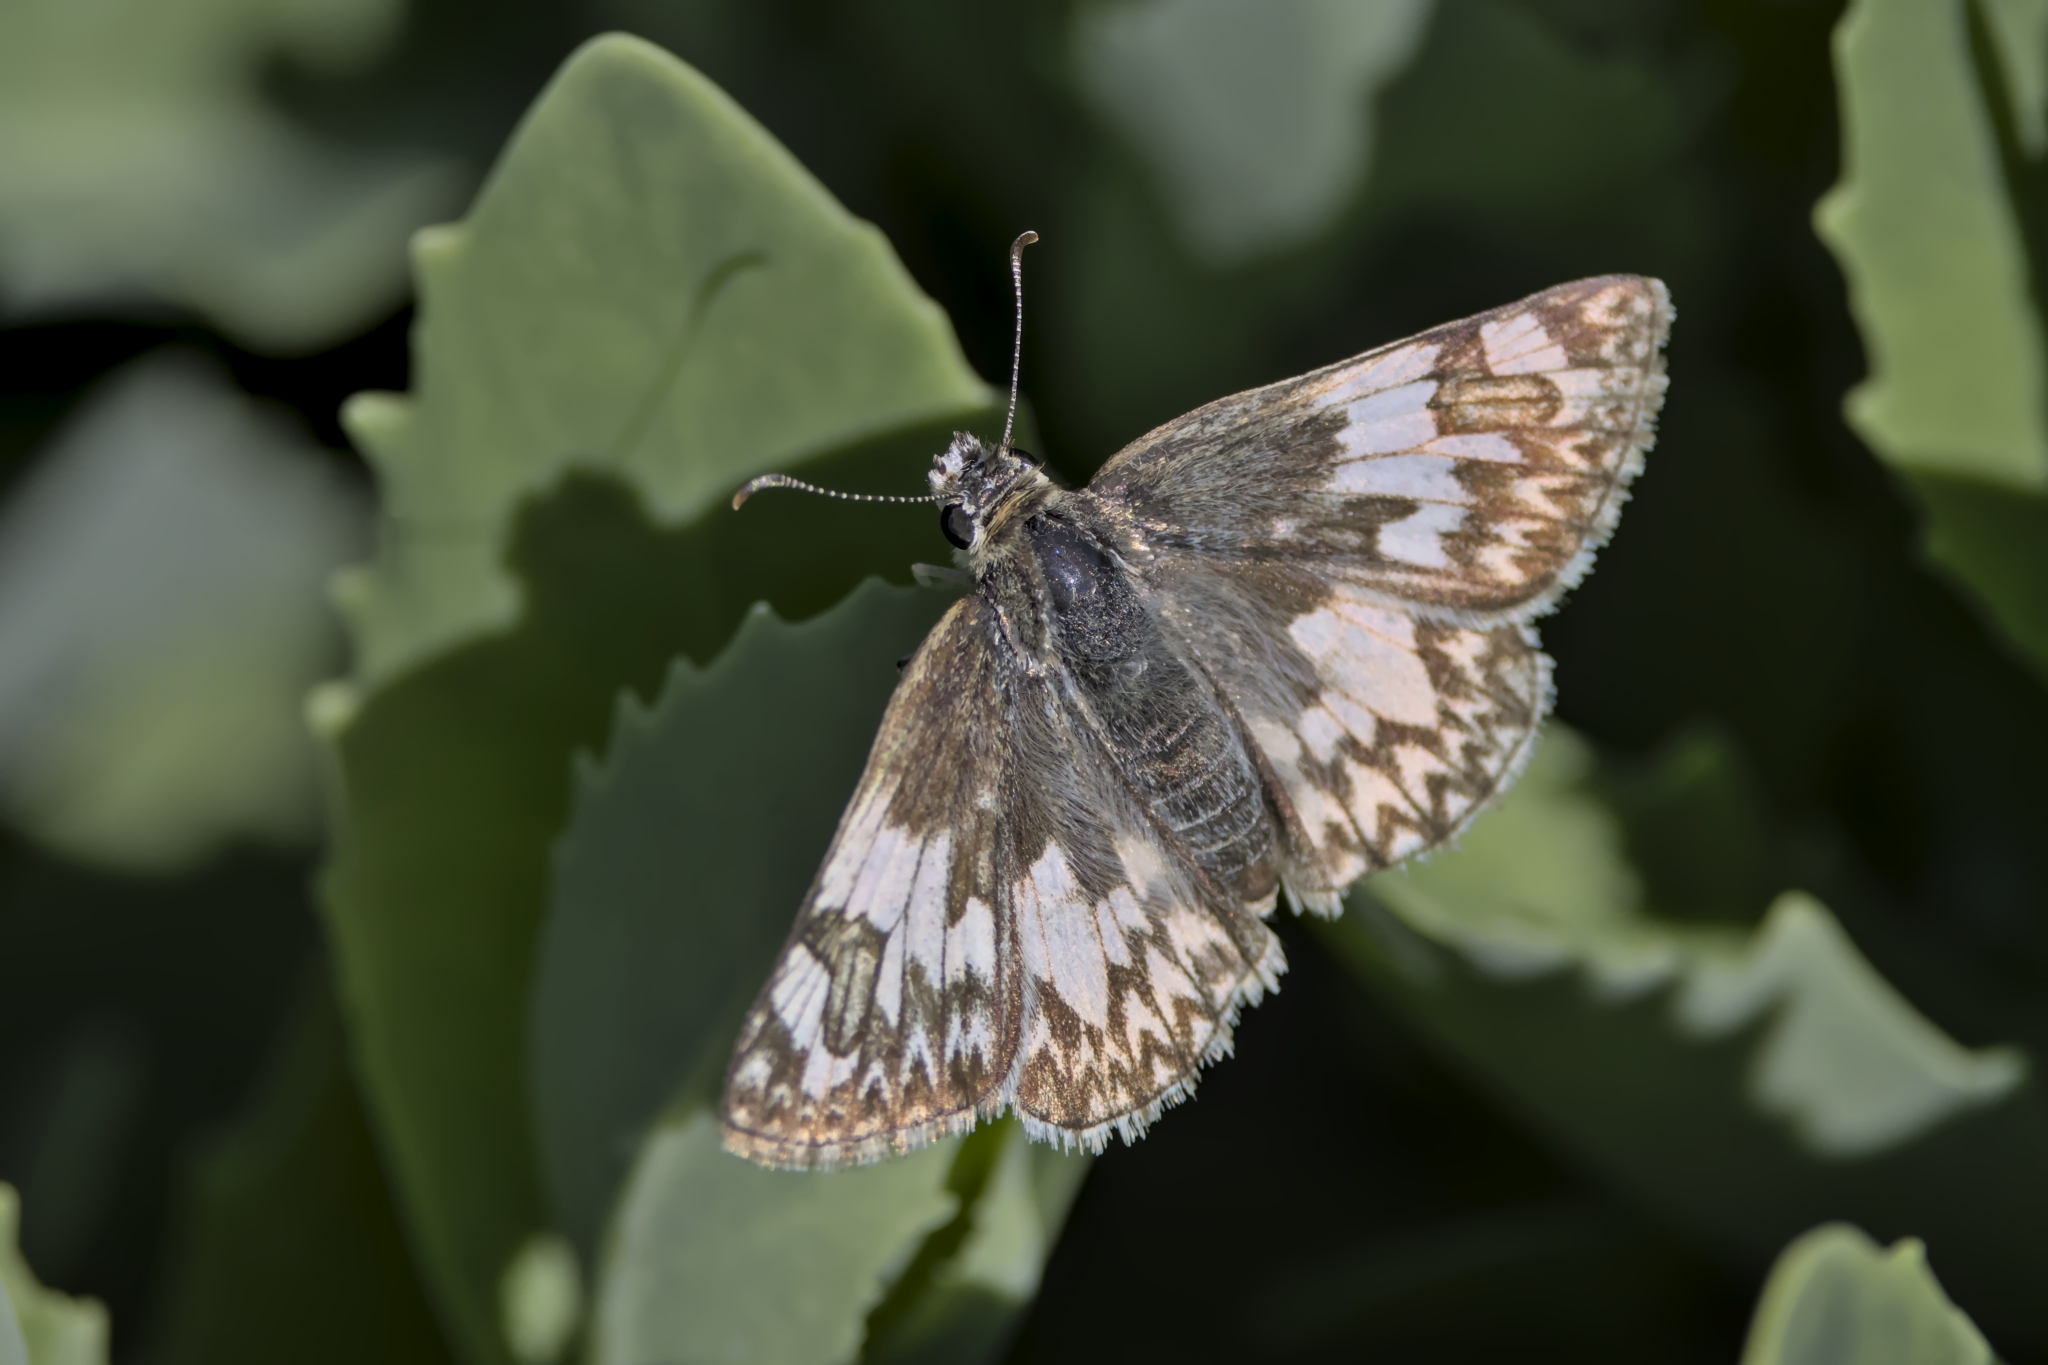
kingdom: Animalia
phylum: Arthropoda
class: Insecta
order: Lepidoptera
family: Hesperiidae
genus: Heliopetes
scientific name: Heliopetes ericetorum
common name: Northern white-skipper
